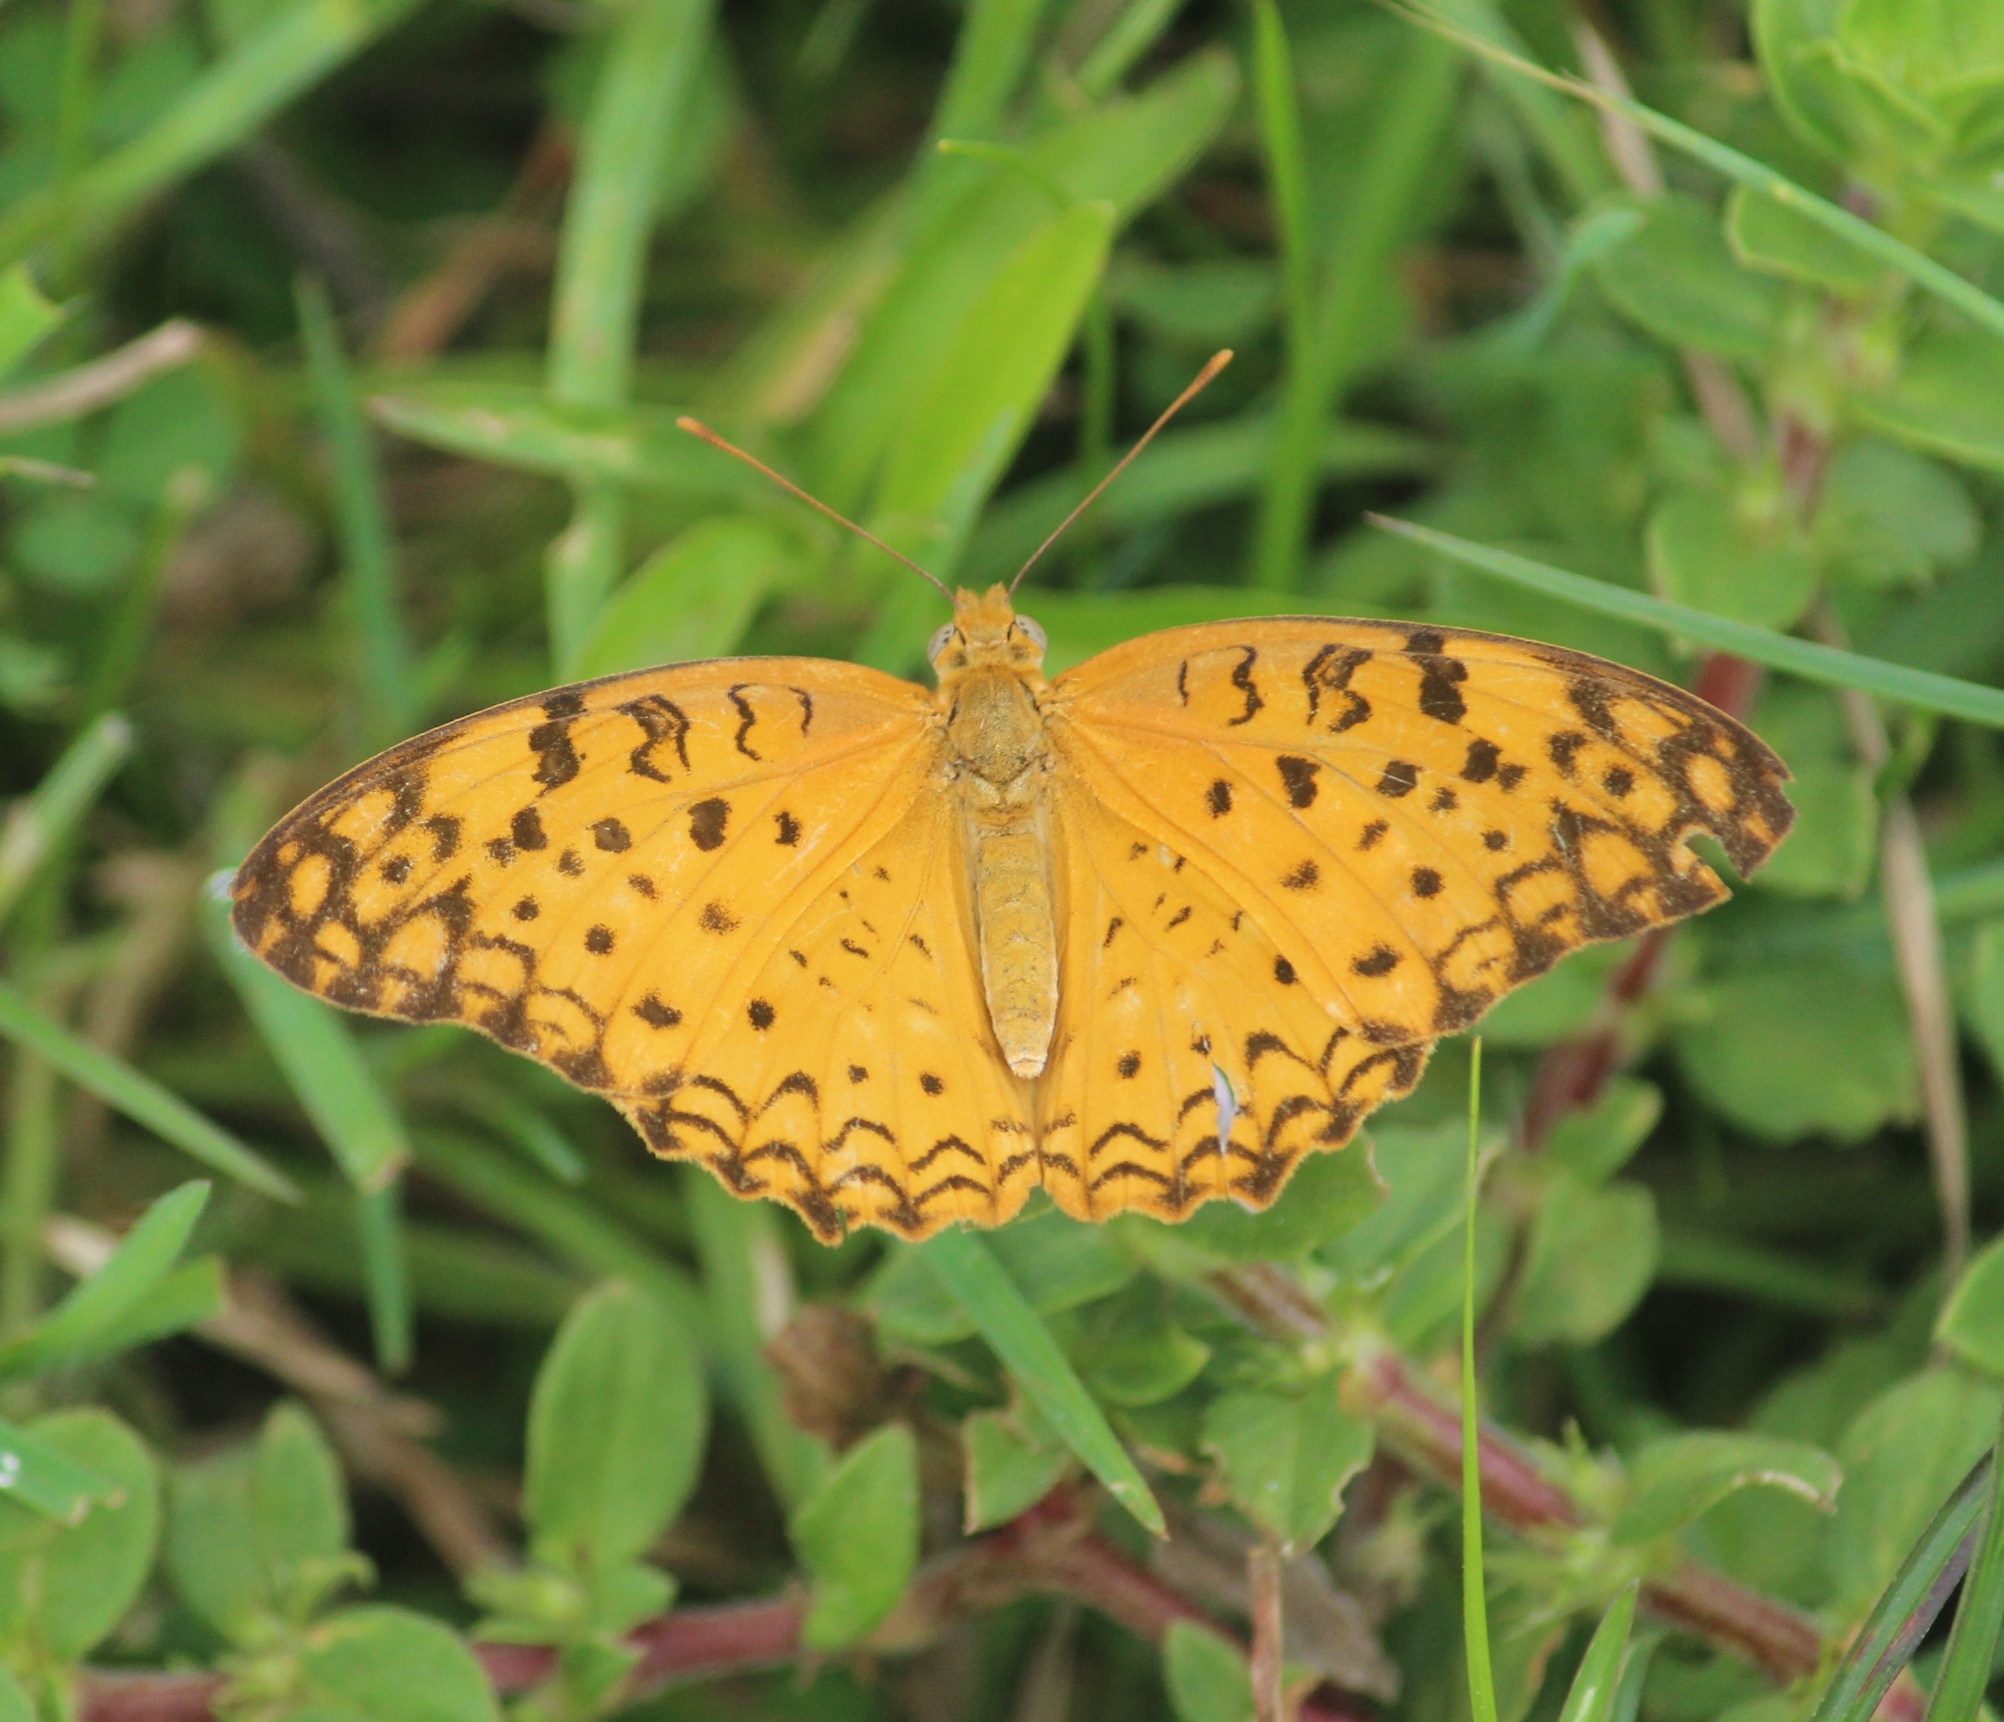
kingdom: Animalia
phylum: Arthropoda
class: Insecta
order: Lepidoptera
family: Nymphalidae
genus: Phalanta
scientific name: Phalanta phalantha
